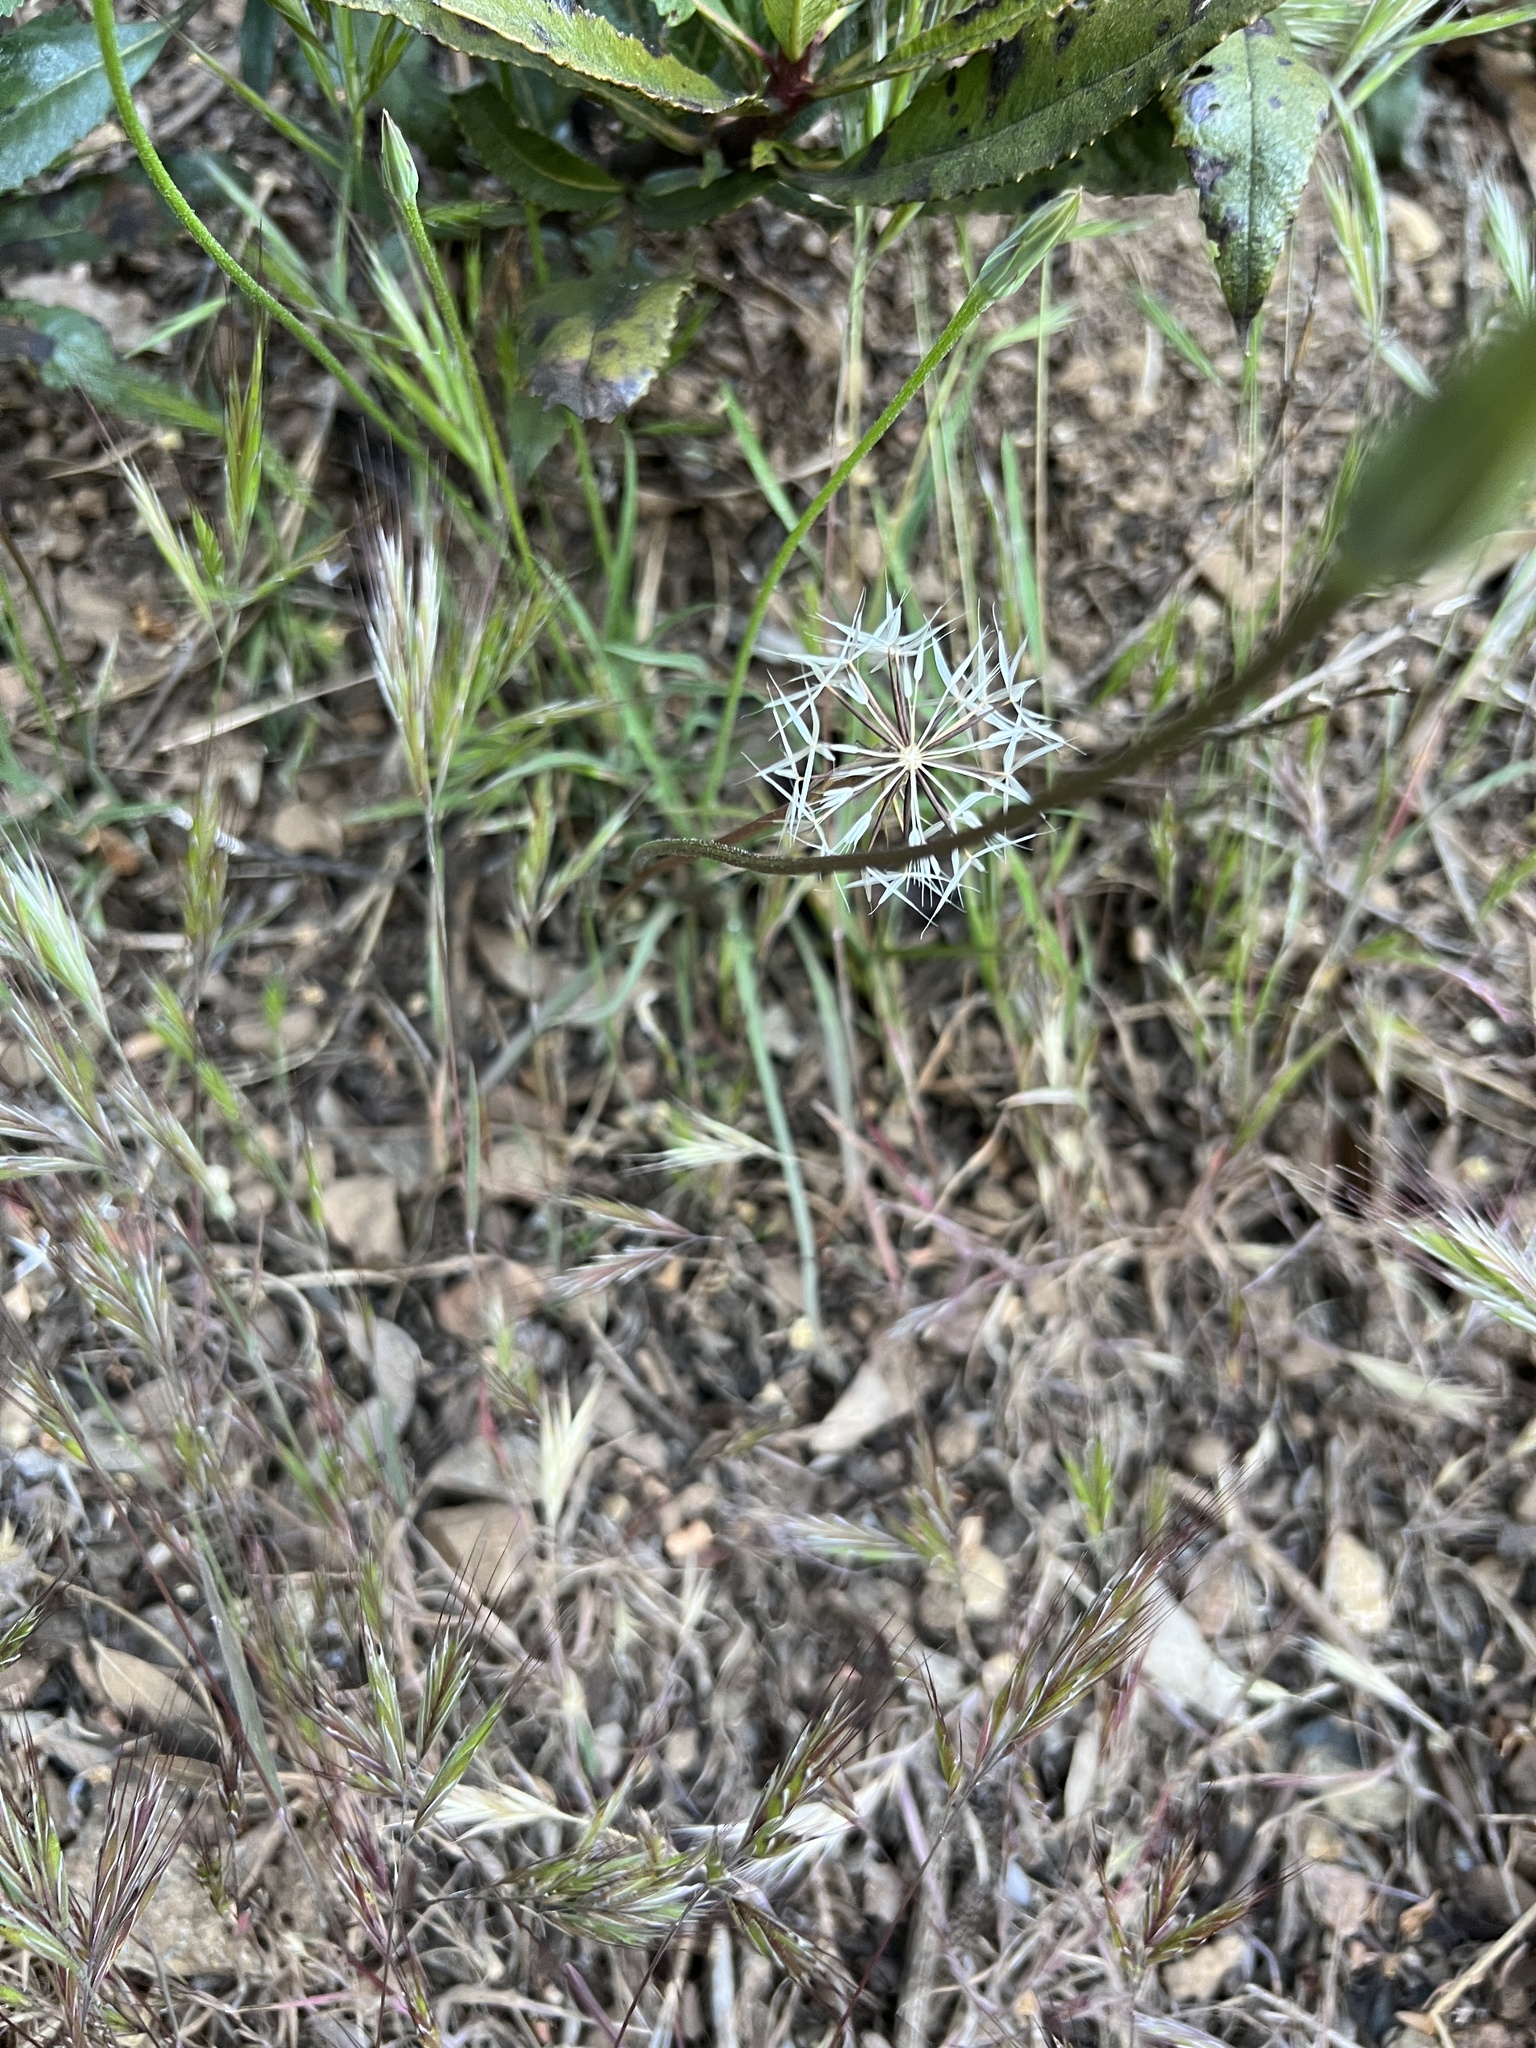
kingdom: Plantae
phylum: Tracheophyta
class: Magnoliopsida
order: Asterales
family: Asteraceae
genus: Microseris
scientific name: Microseris lindleyi
